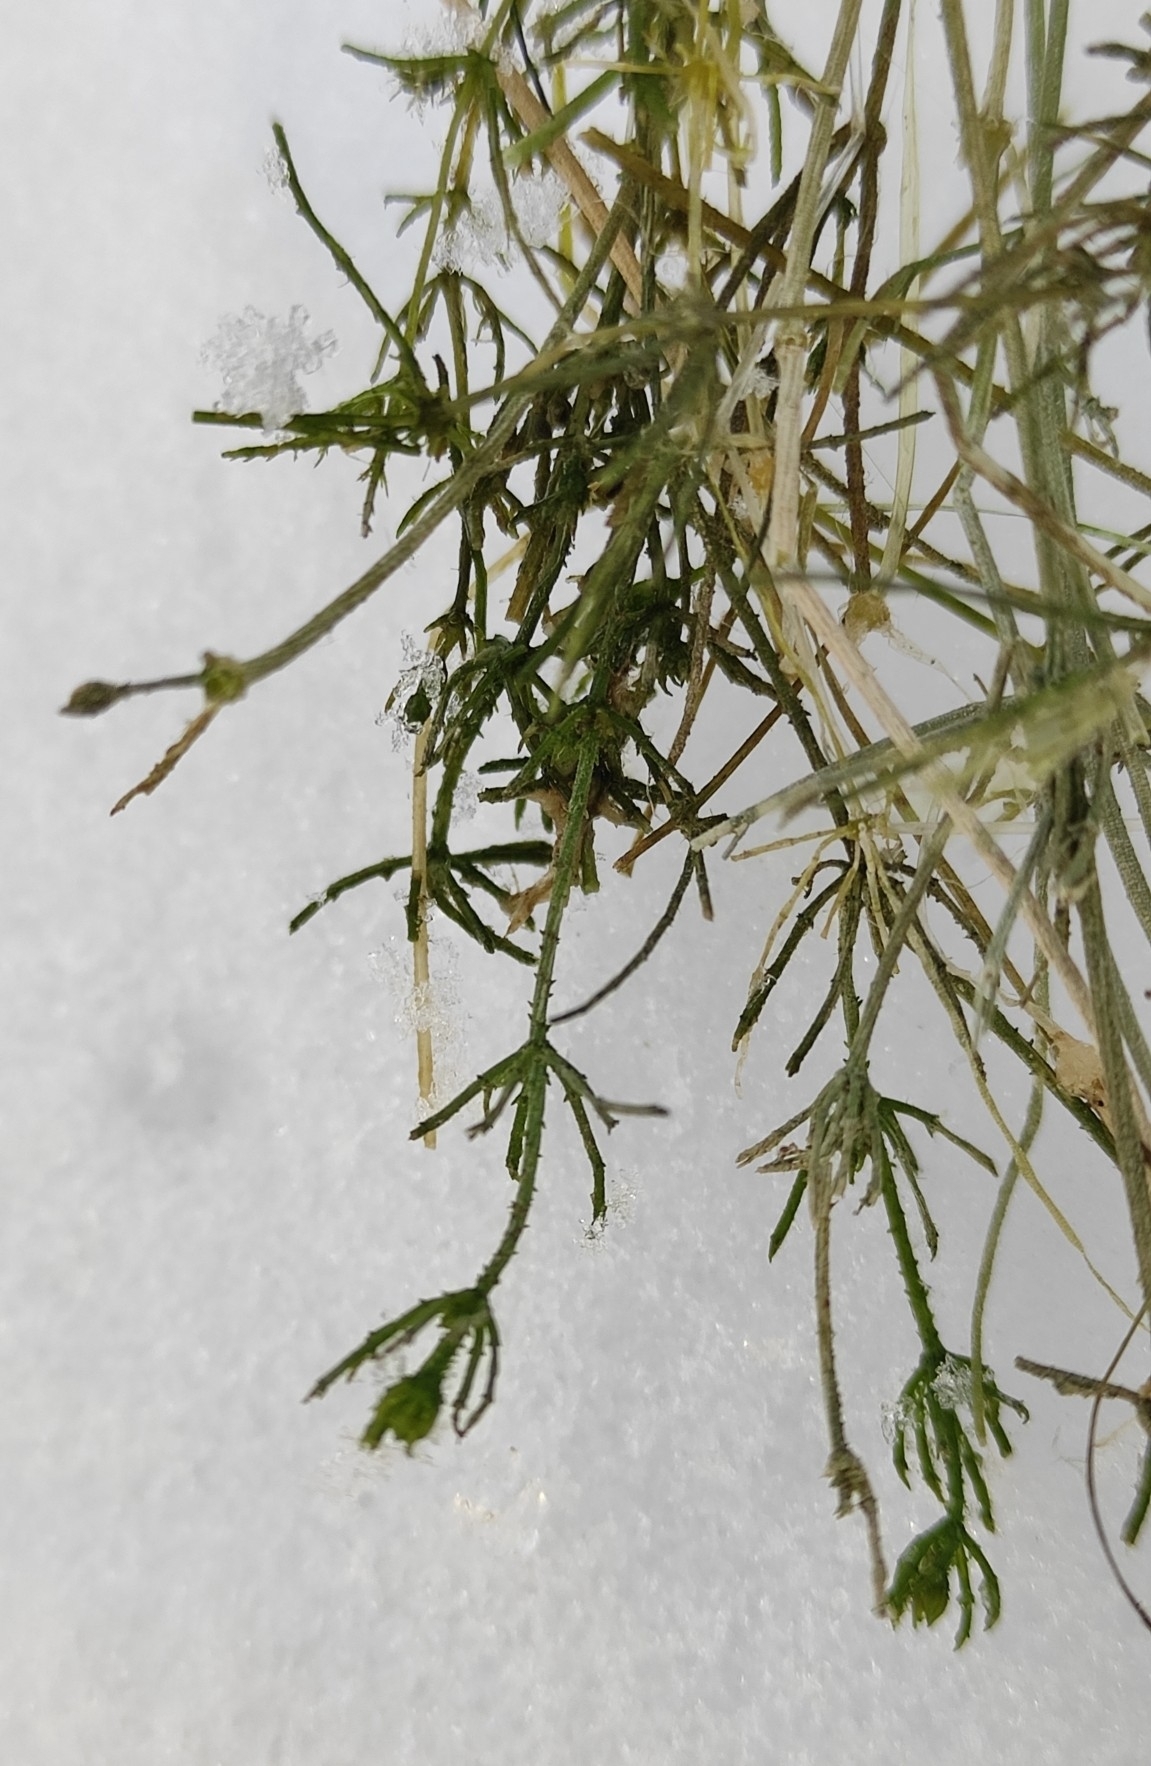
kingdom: Plantae
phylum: Charophyta
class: Charophyceae
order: Charales
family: Characeae
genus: Chara
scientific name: Chara contraria
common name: Opposite stonewort
